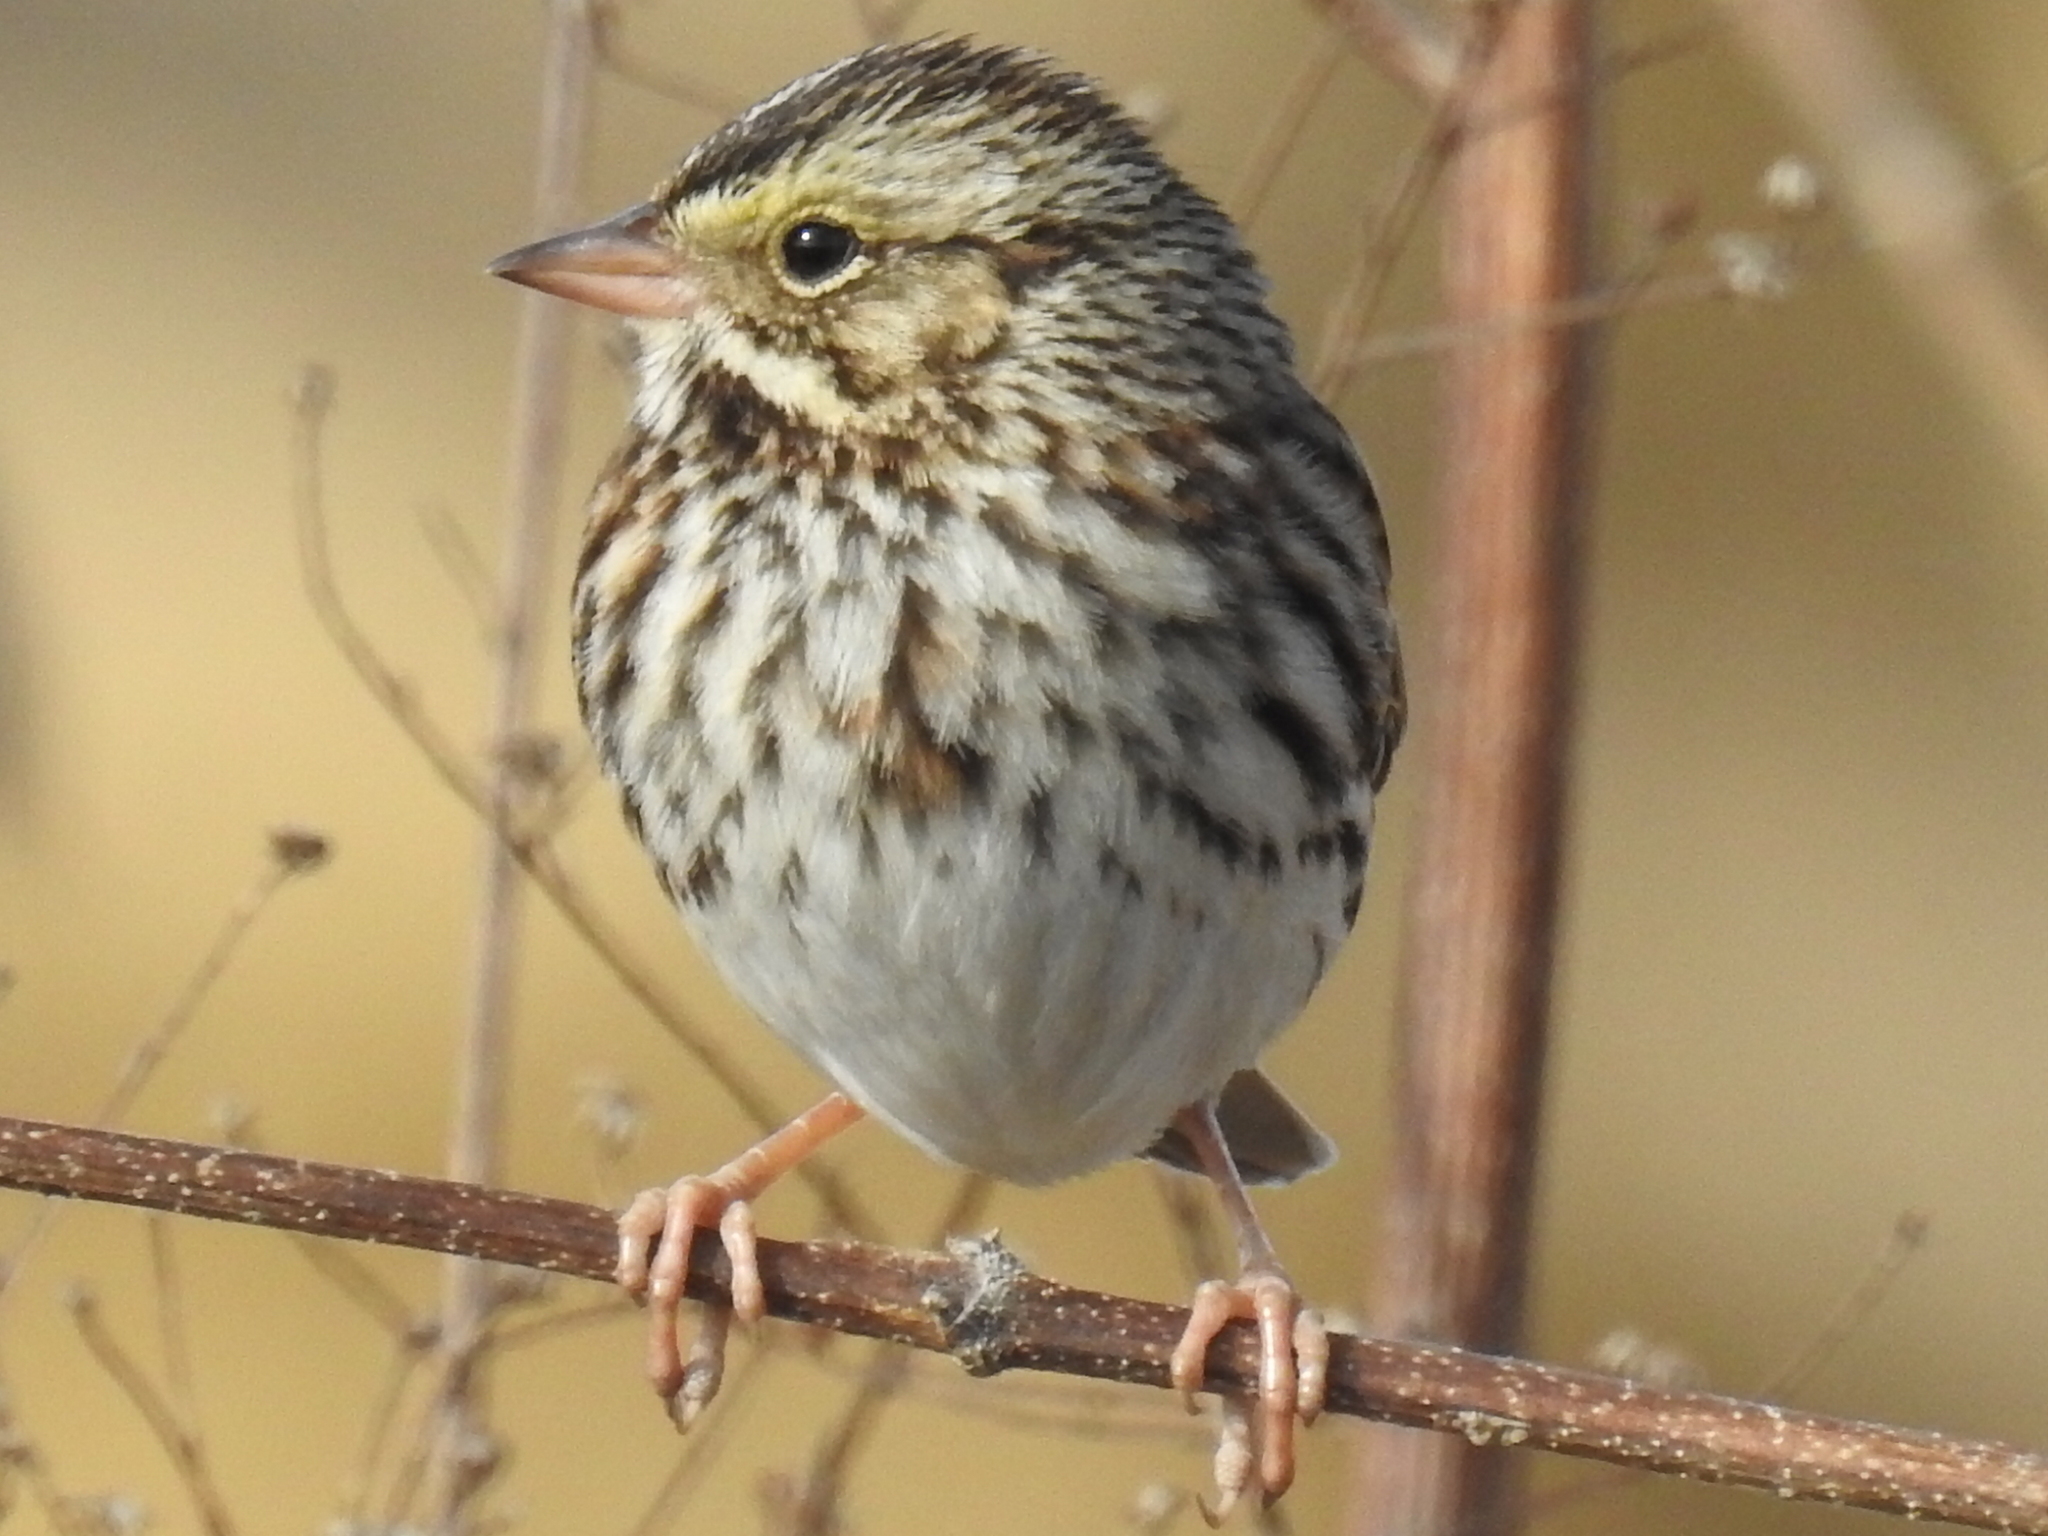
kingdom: Animalia
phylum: Chordata
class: Aves
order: Passeriformes
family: Passerellidae
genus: Passerculus
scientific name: Passerculus sandwichensis
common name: Savannah sparrow
